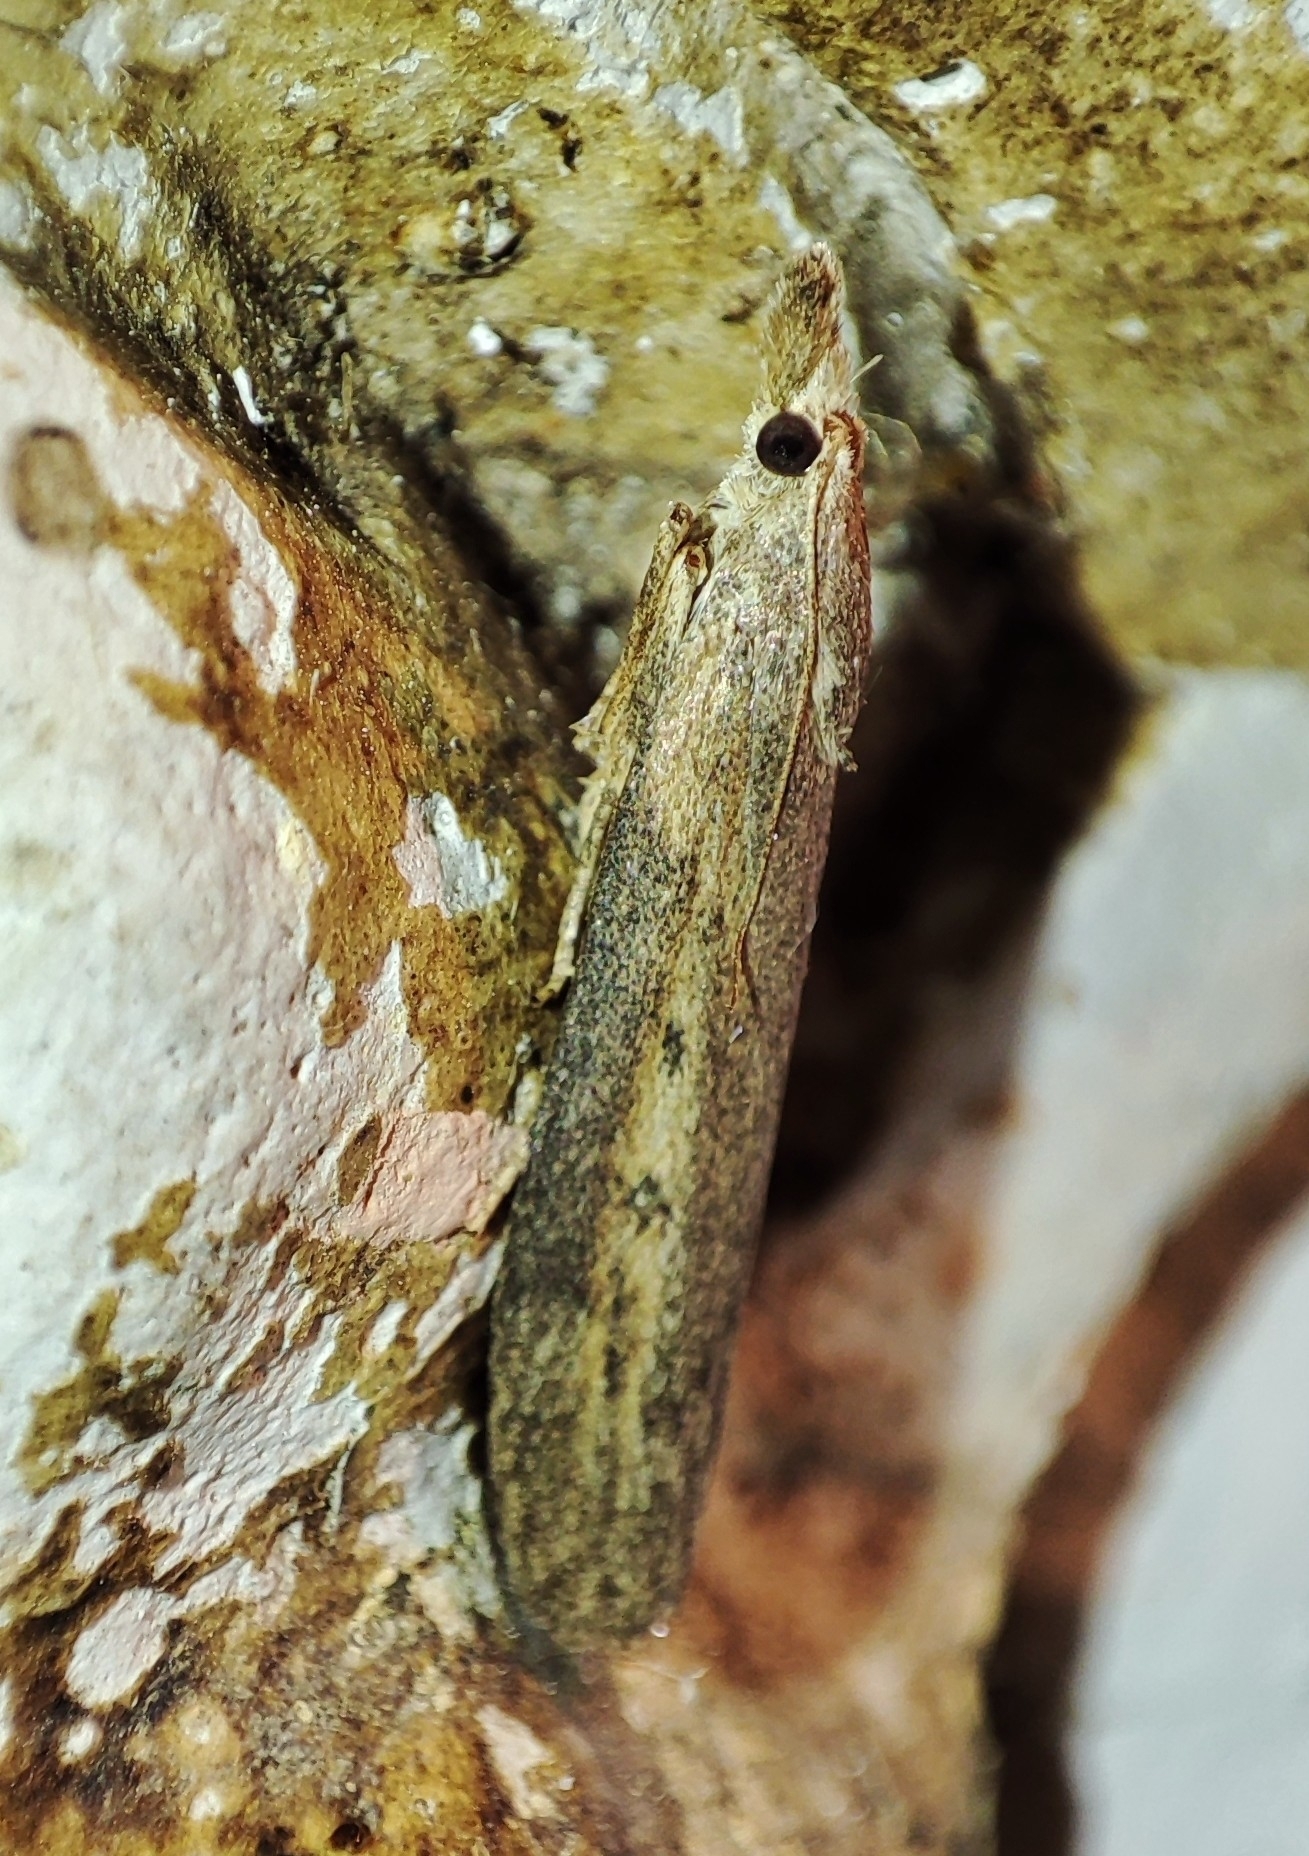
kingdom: Animalia
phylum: Arthropoda
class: Insecta
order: Lepidoptera
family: Pyralidae
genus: Aphomia
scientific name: Aphomia zelleri
